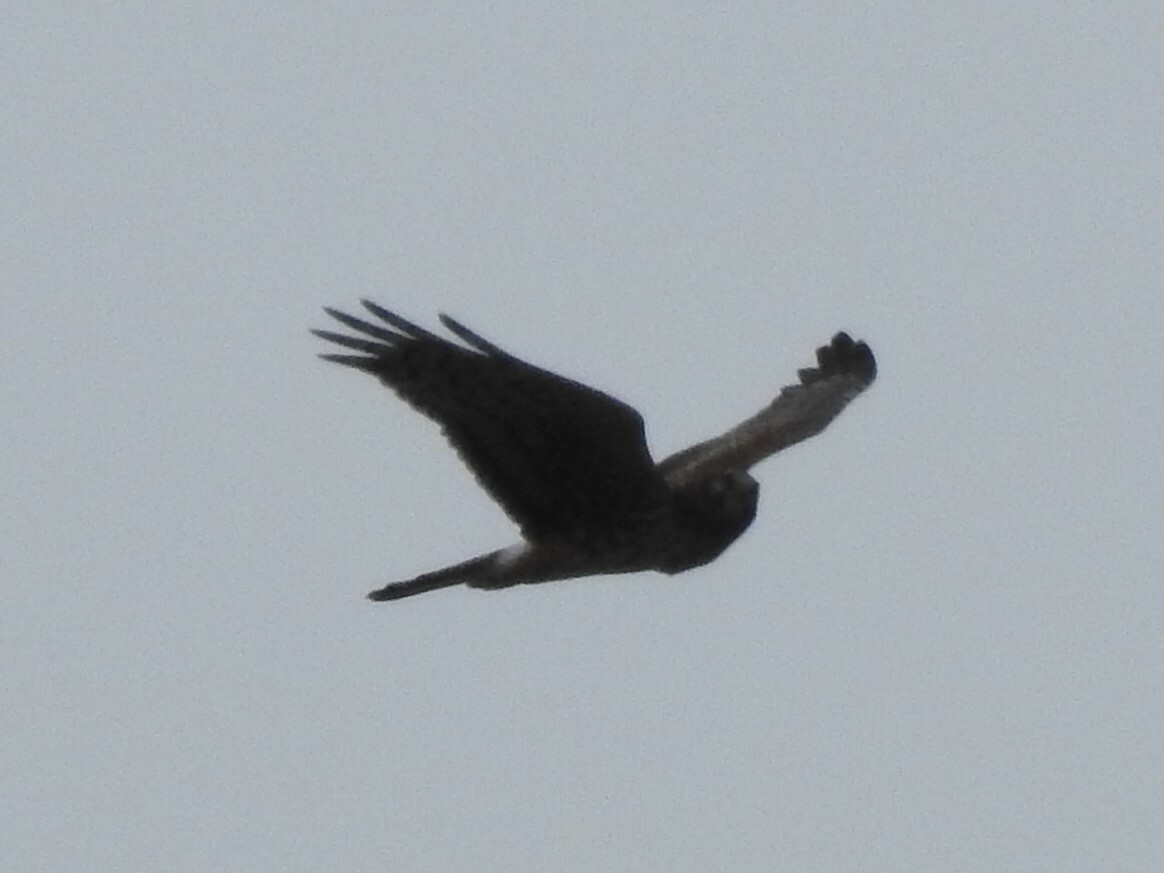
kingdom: Animalia
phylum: Chordata
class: Aves
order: Accipitriformes
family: Accipitridae
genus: Circus
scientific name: Circus cyaneus
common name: Hen harrier
